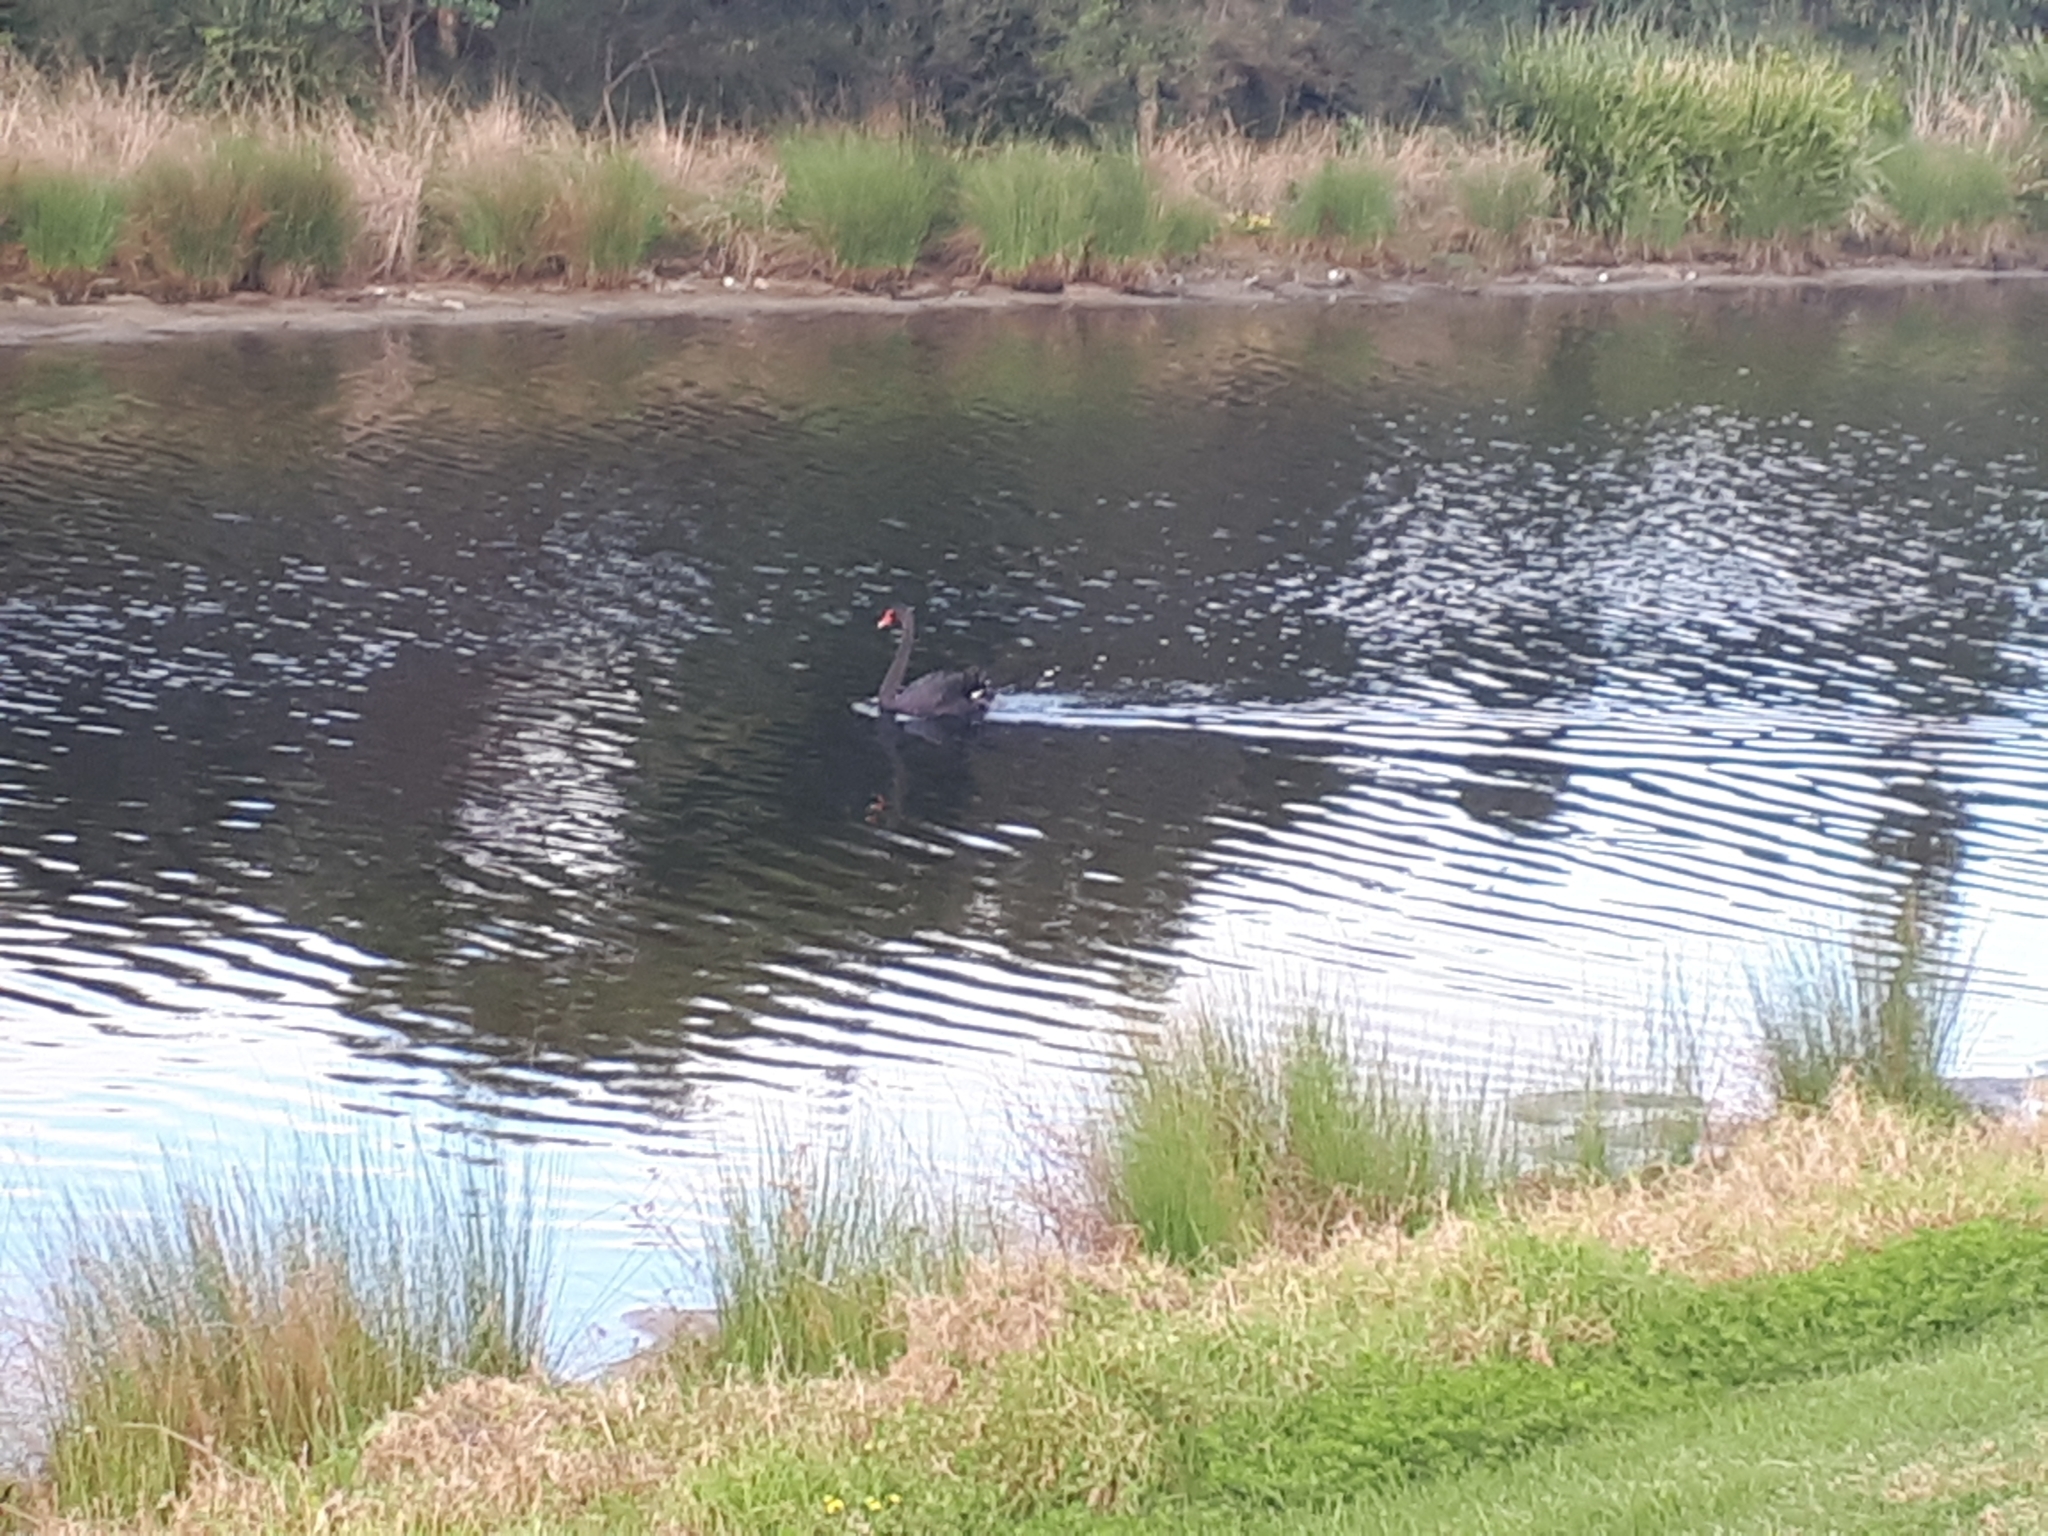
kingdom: Animalia
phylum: Chordata
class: Aves
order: Anseriformes
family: Anatidae
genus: Cygnus
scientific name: Cygnus atratus
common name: Black swan
